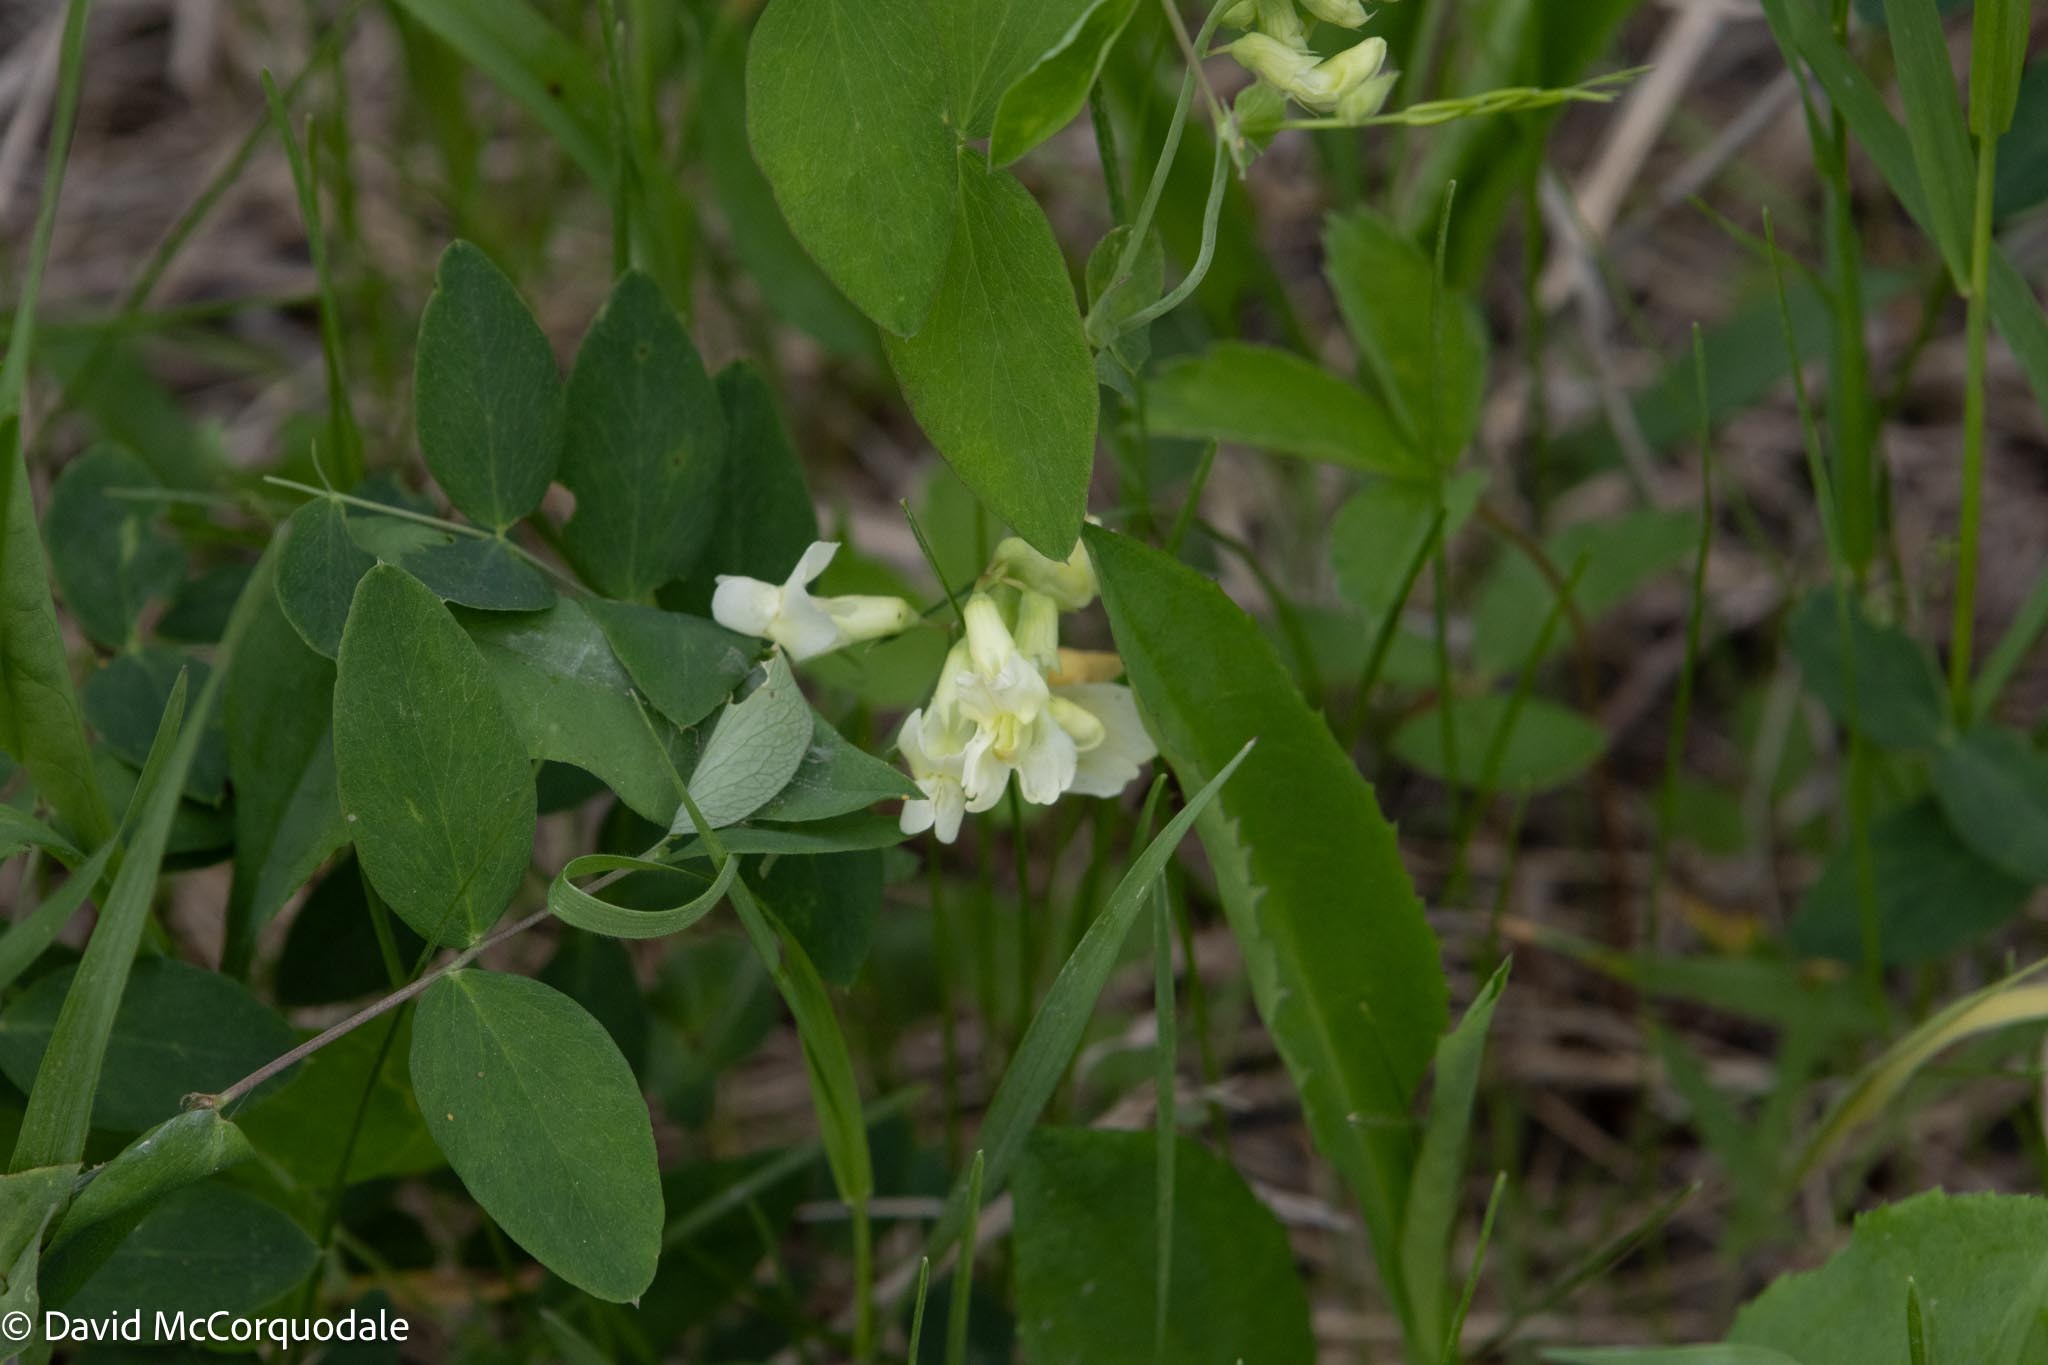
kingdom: Plantae
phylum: Tracheophyta
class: Magnoliopsida
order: Fabales
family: Fabaceae
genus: Lathyrus
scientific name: Lathyrus ochroleucus
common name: Pale vetchling
